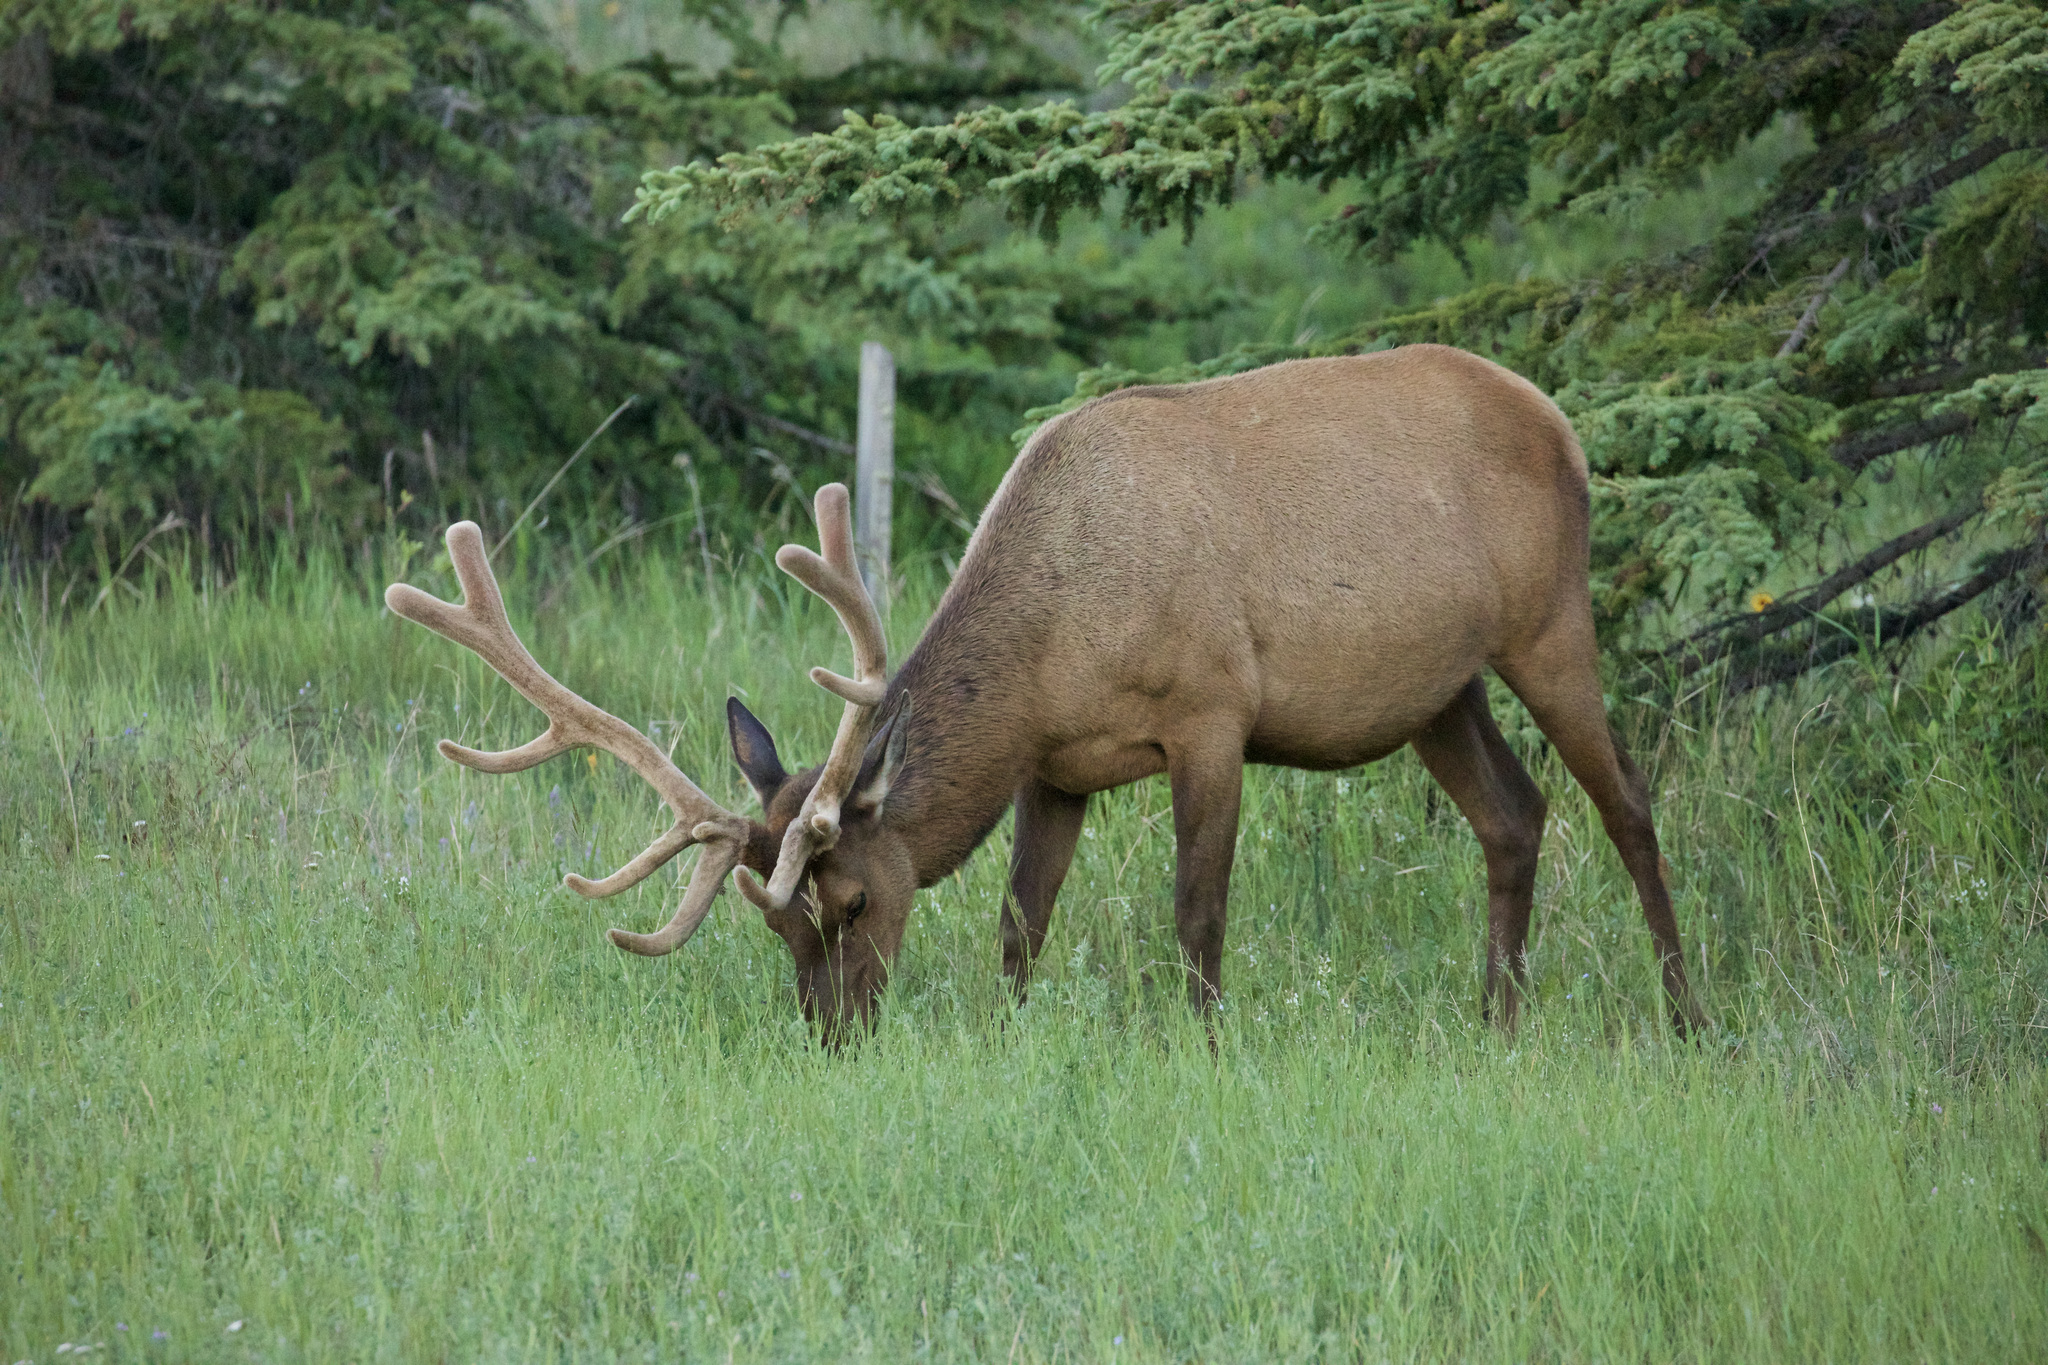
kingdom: Animalia
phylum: Chordata
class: Mammalia
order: Artiodactyla
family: Cervidae
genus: Cervus
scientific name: Cervus elaphus
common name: Red deer
